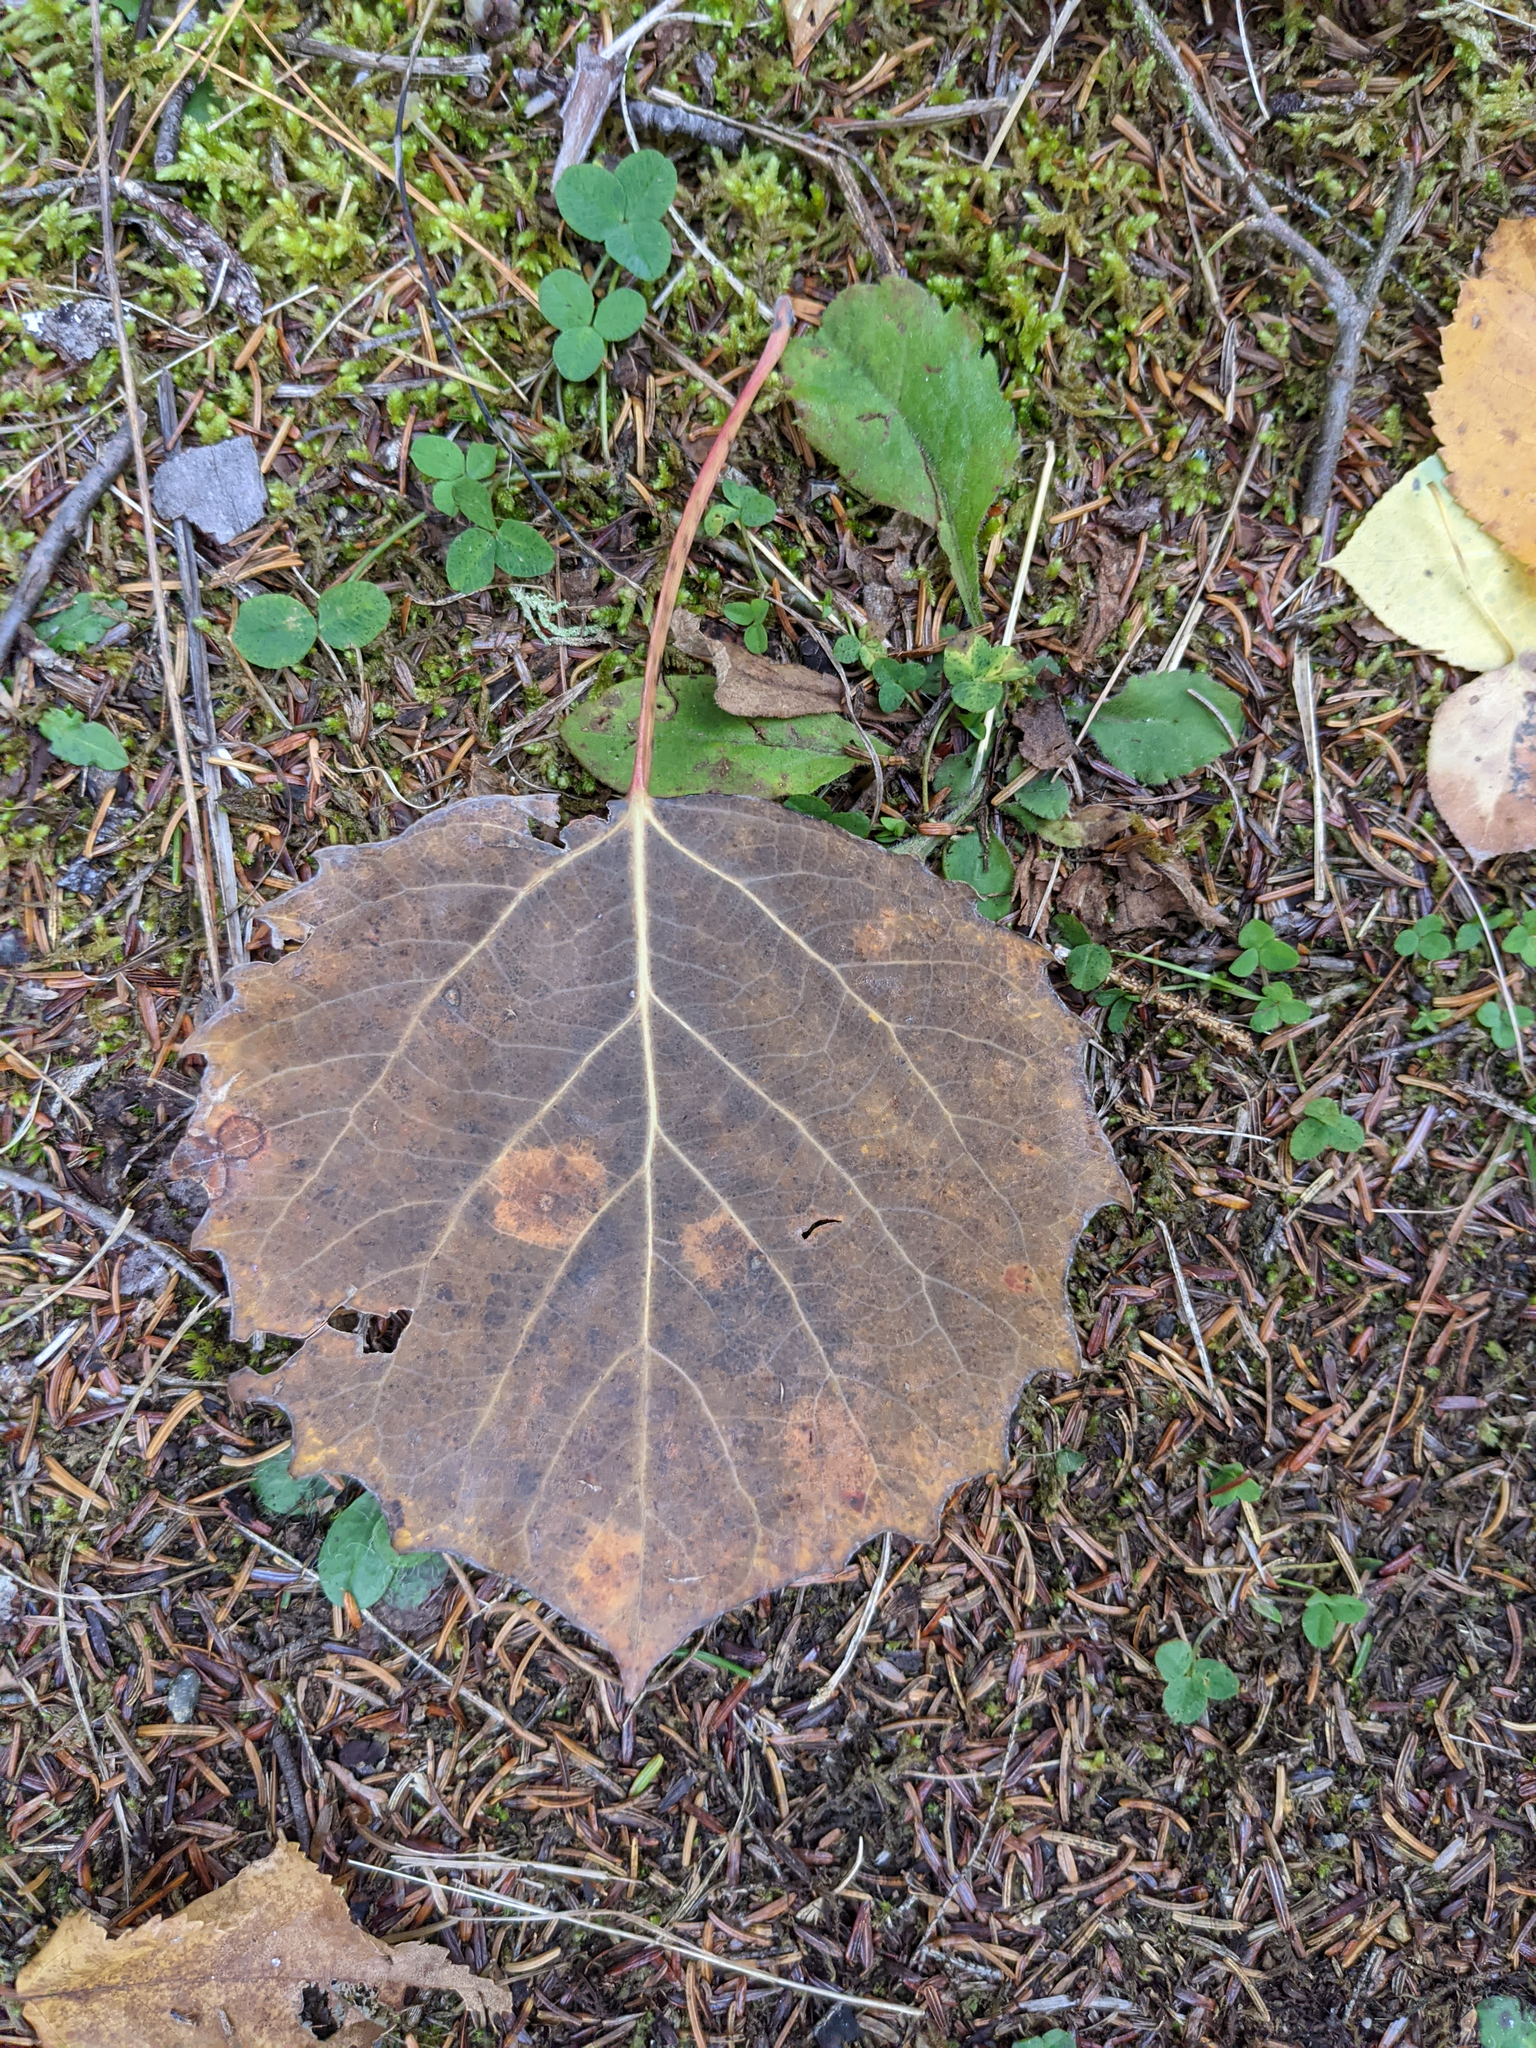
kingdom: Plantae
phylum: Tracheophyta
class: Magnoliopsida
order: Malpighiales
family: Salicaceae
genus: Populus
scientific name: Populus grandidentata
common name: Bigtooth aspen
